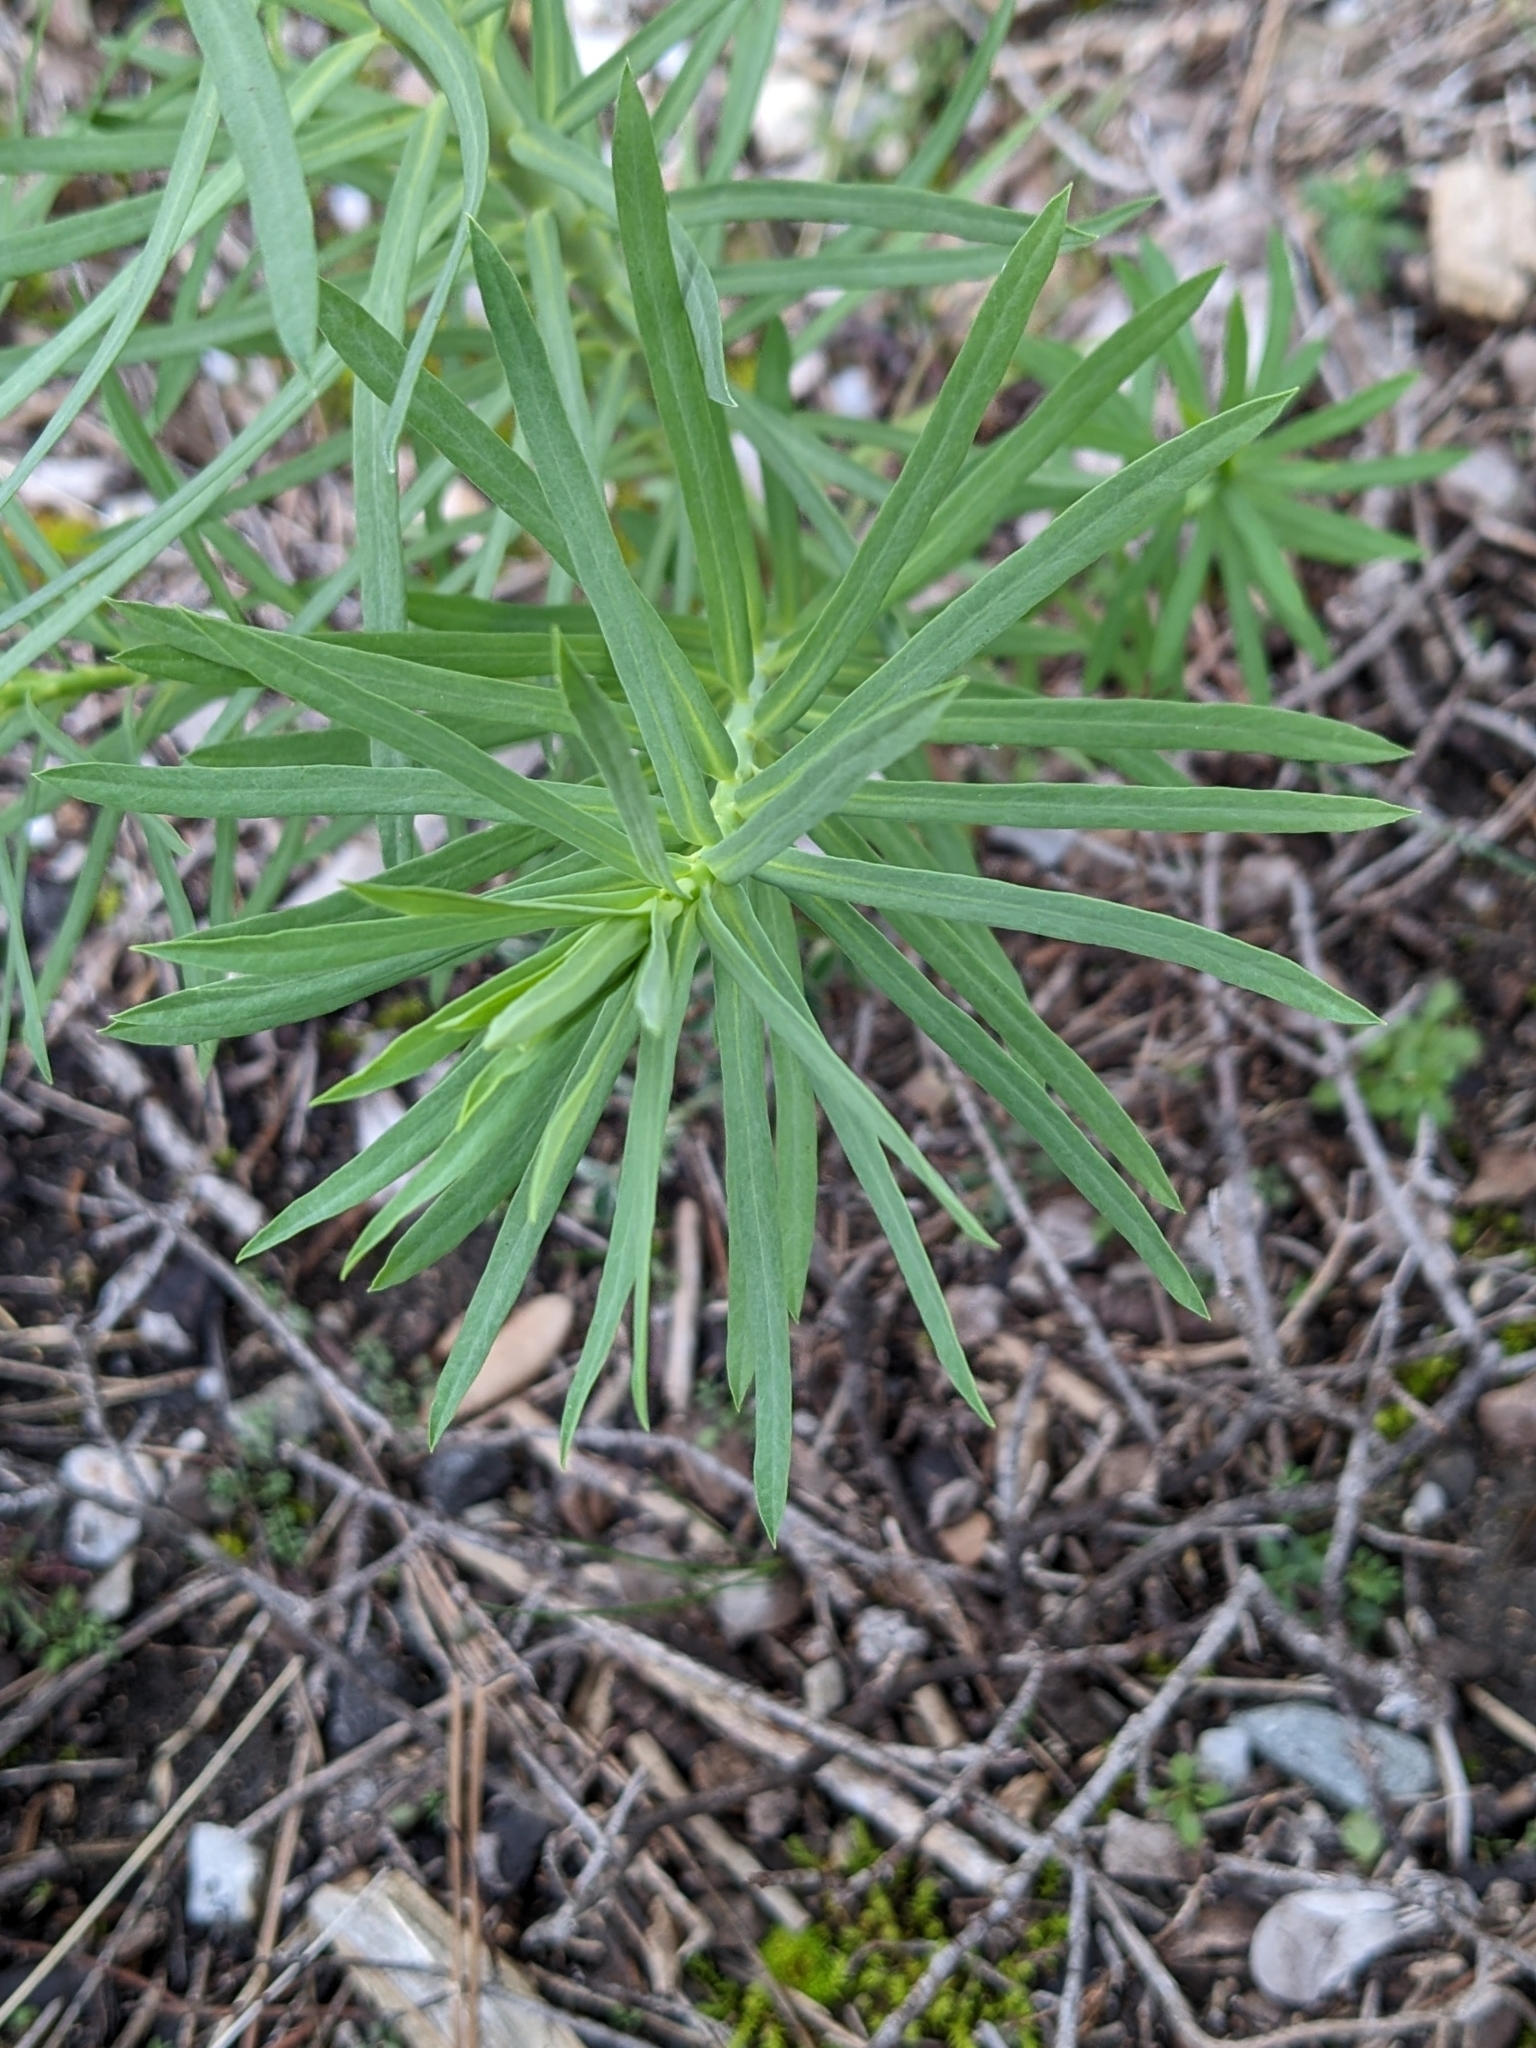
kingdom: Plantae
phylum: Tracheophyta
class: Magnoliopsida
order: Malpighiales
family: Euphorbiaceae
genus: Euphorbia
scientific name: Euphorbia segetalis
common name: Corn spurge
